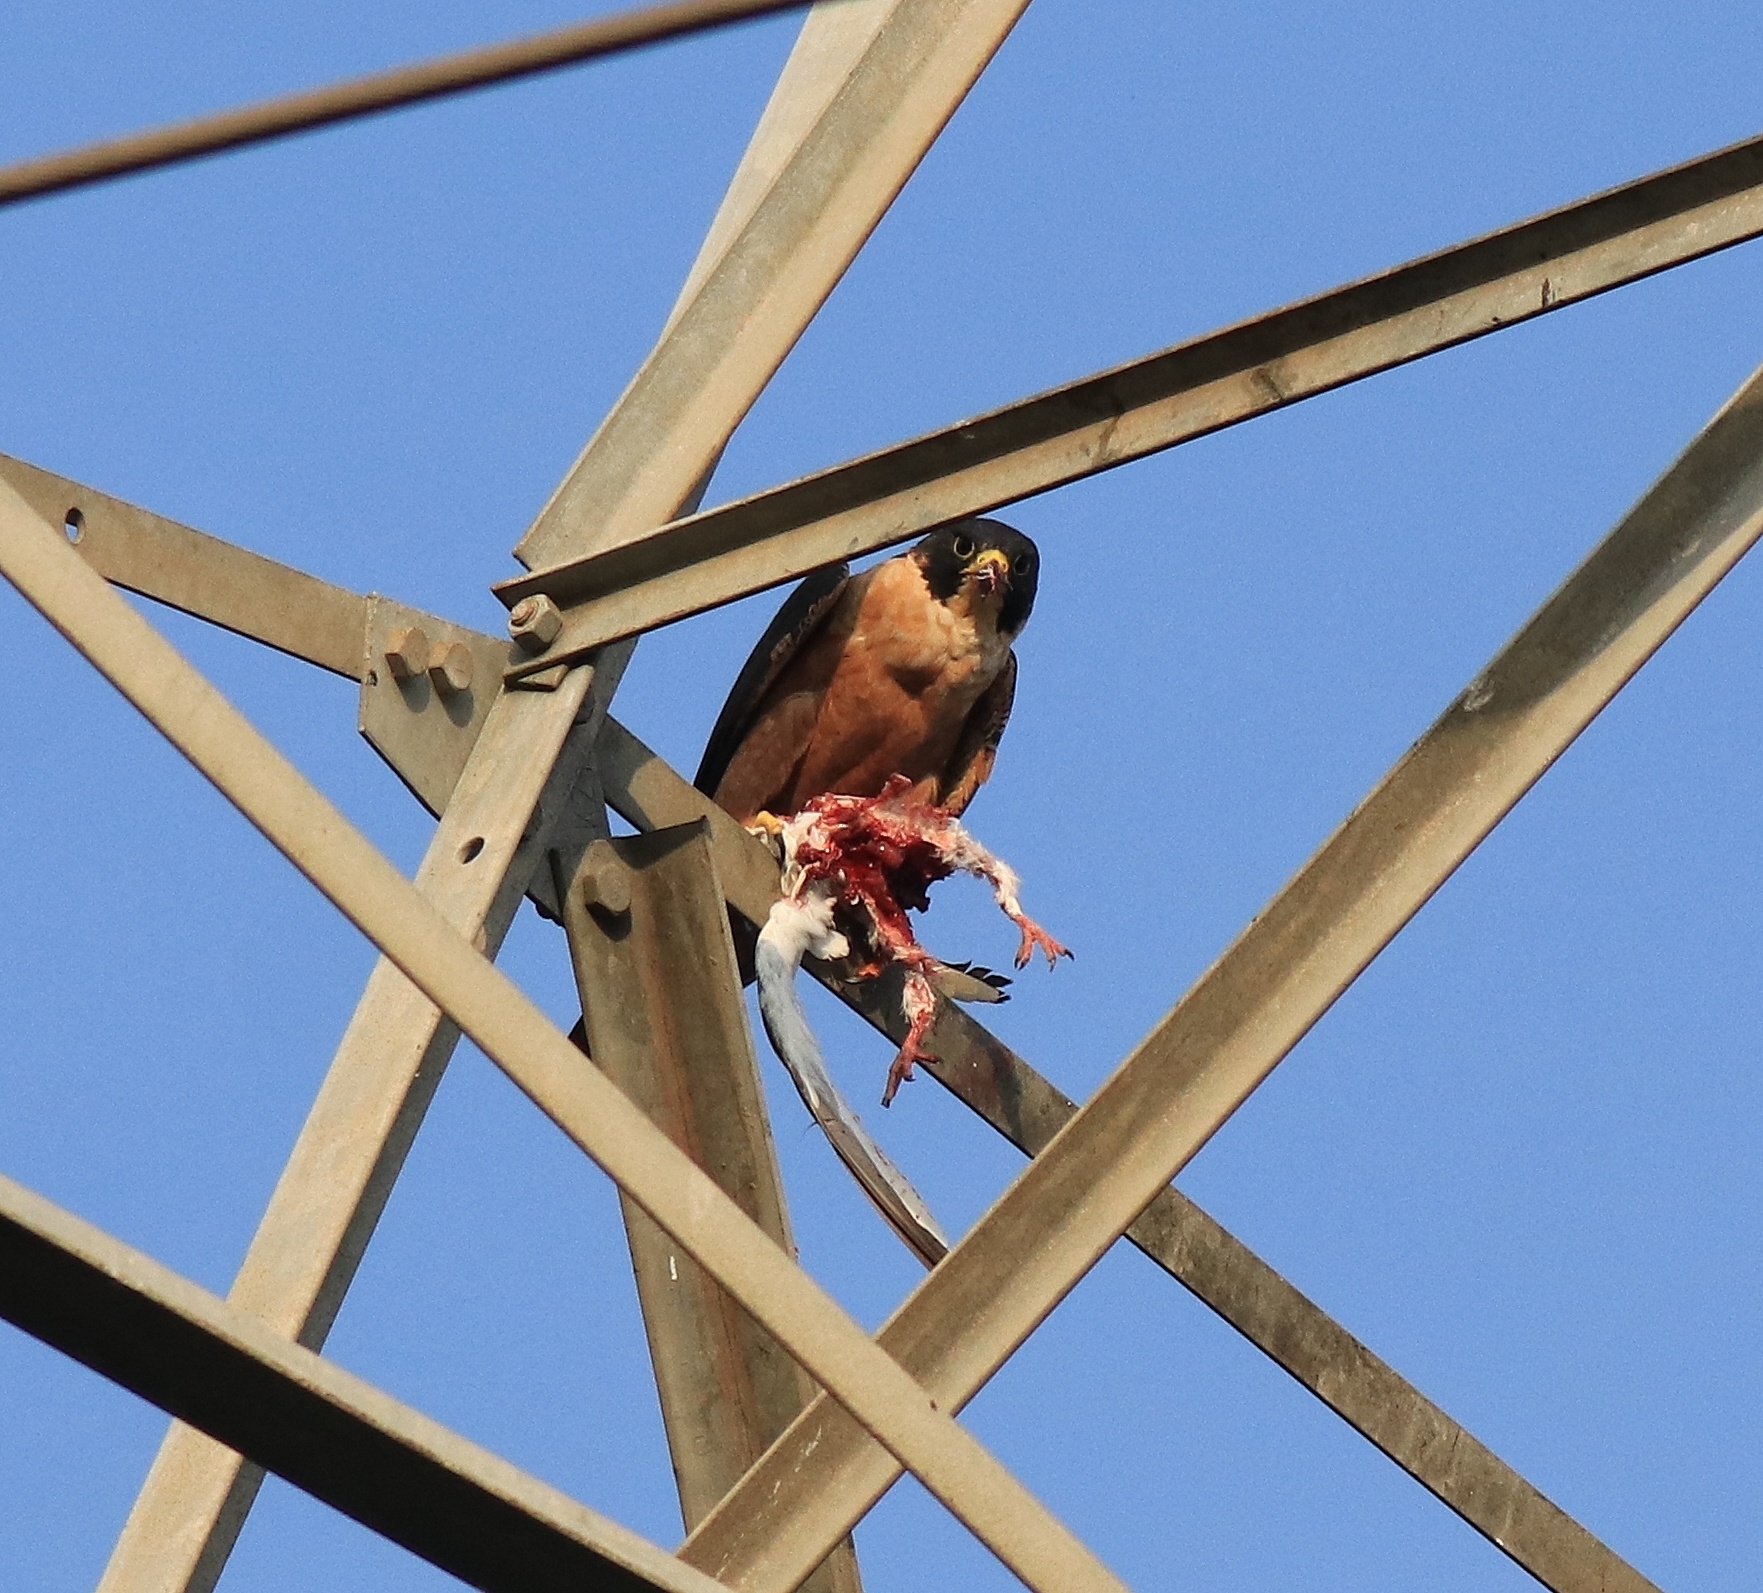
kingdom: Animalia
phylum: Chordata
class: Aves
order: Falconiformes
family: Falconidae
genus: Falco
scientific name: Falco peregrinus
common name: Peregrine falcon
